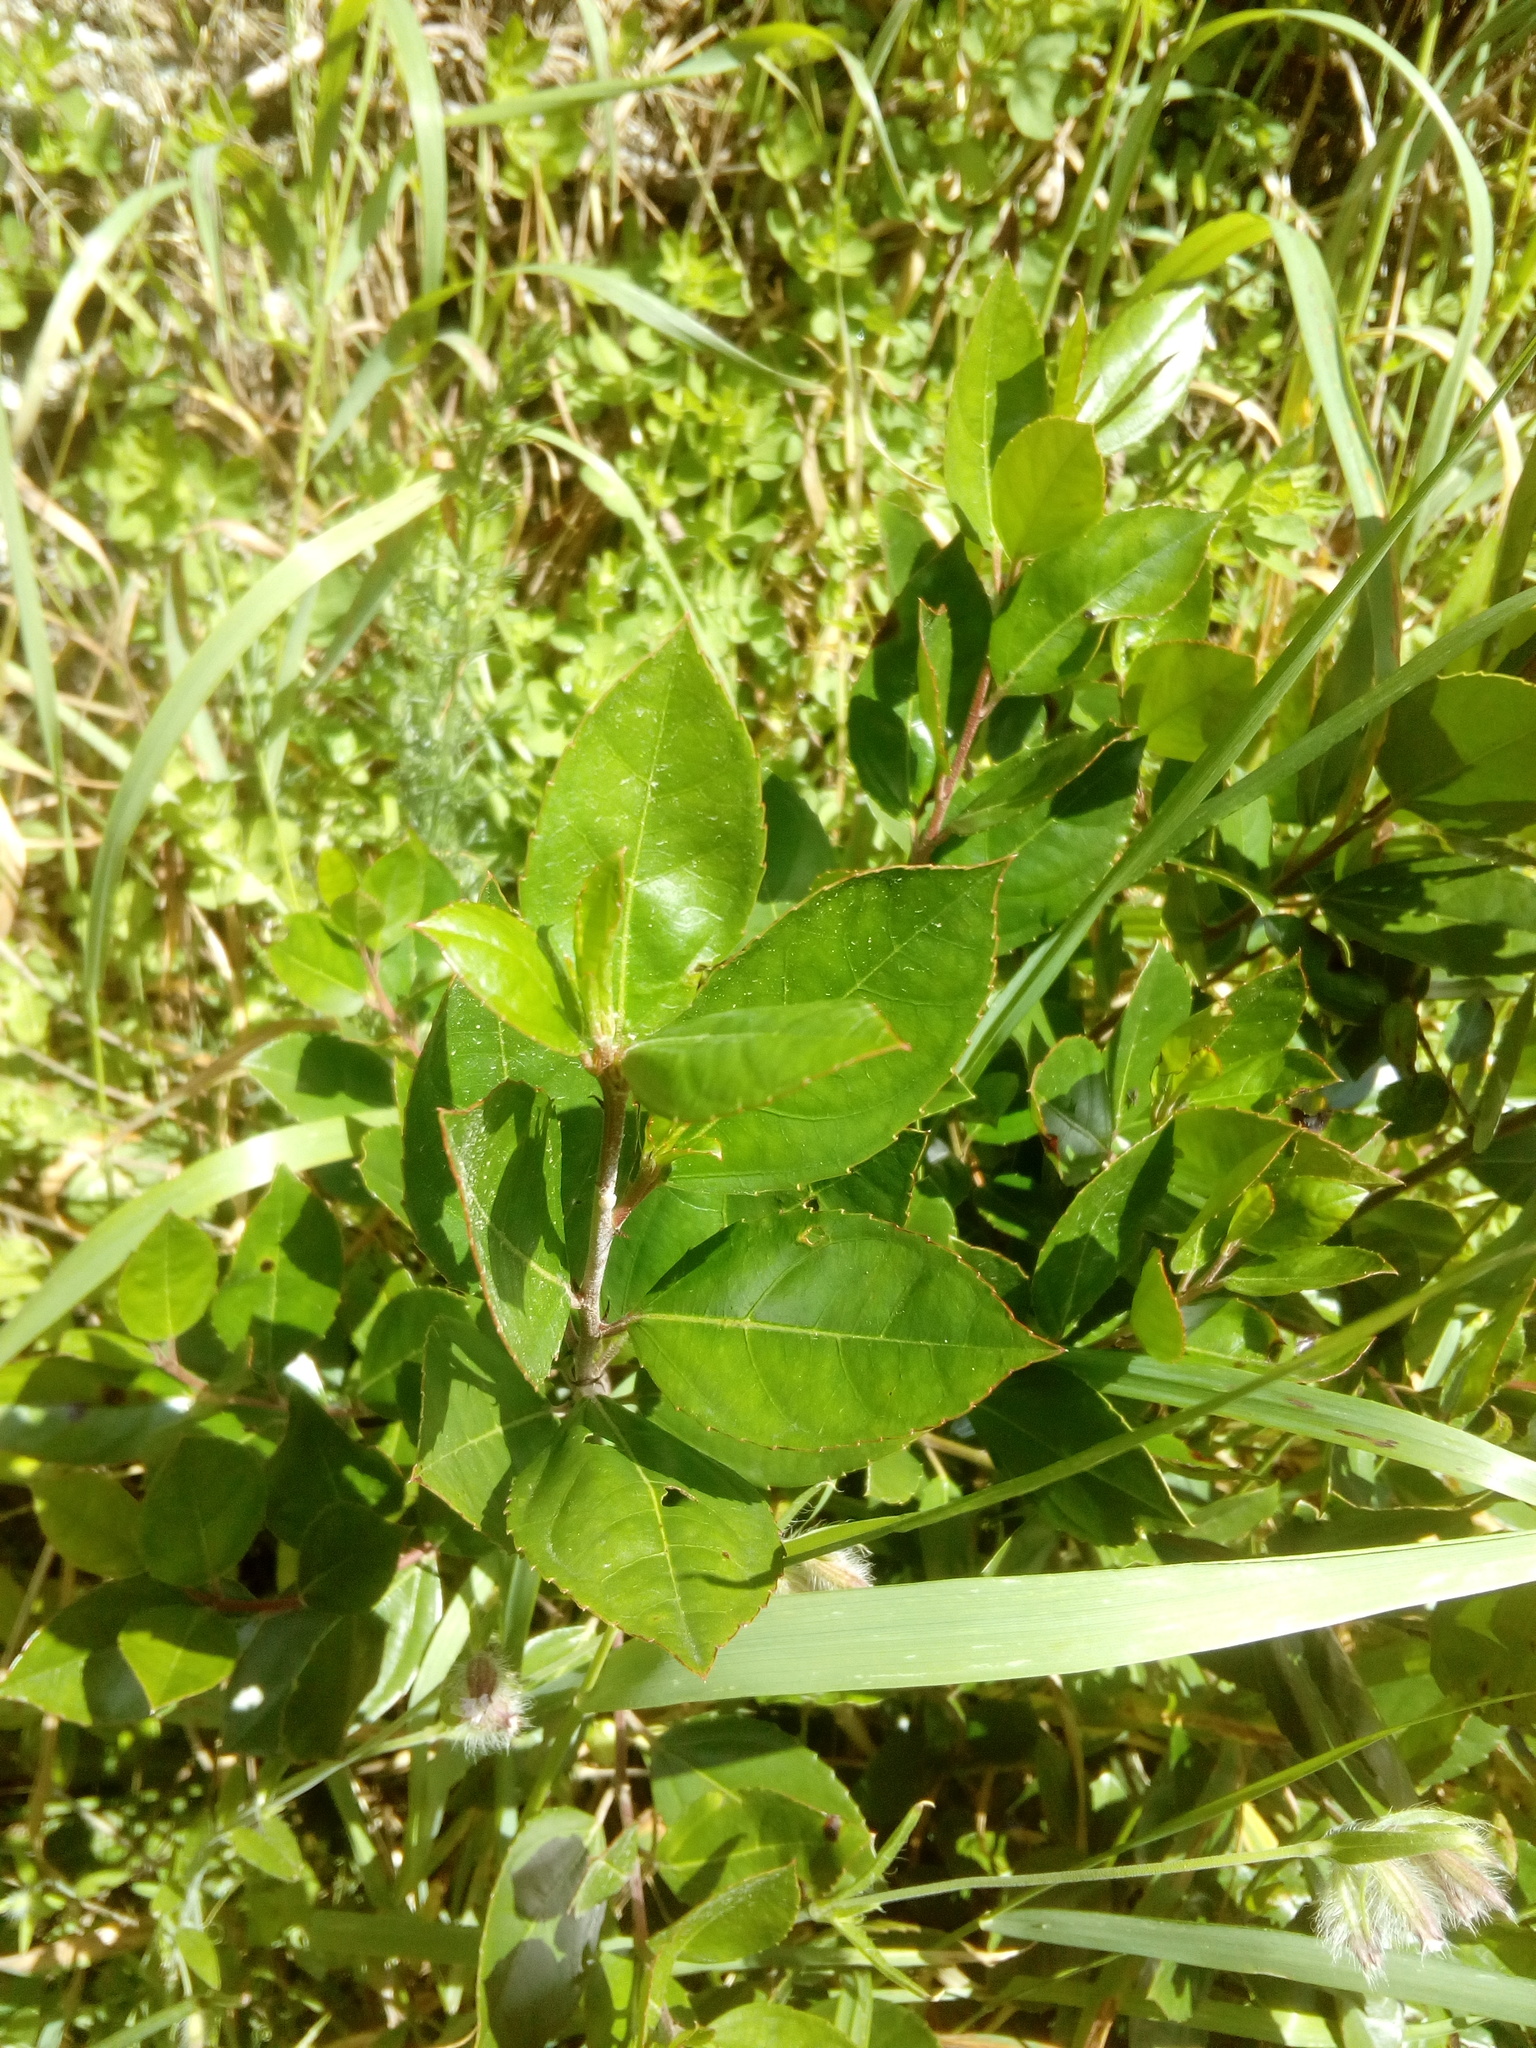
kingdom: Plantae
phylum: Tracheophyta
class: Magnoliopsida
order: Rosales
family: Rhamnaceae
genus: Rhamnus
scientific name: Rhamnus alaternus
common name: Mediterranean buckthorn
